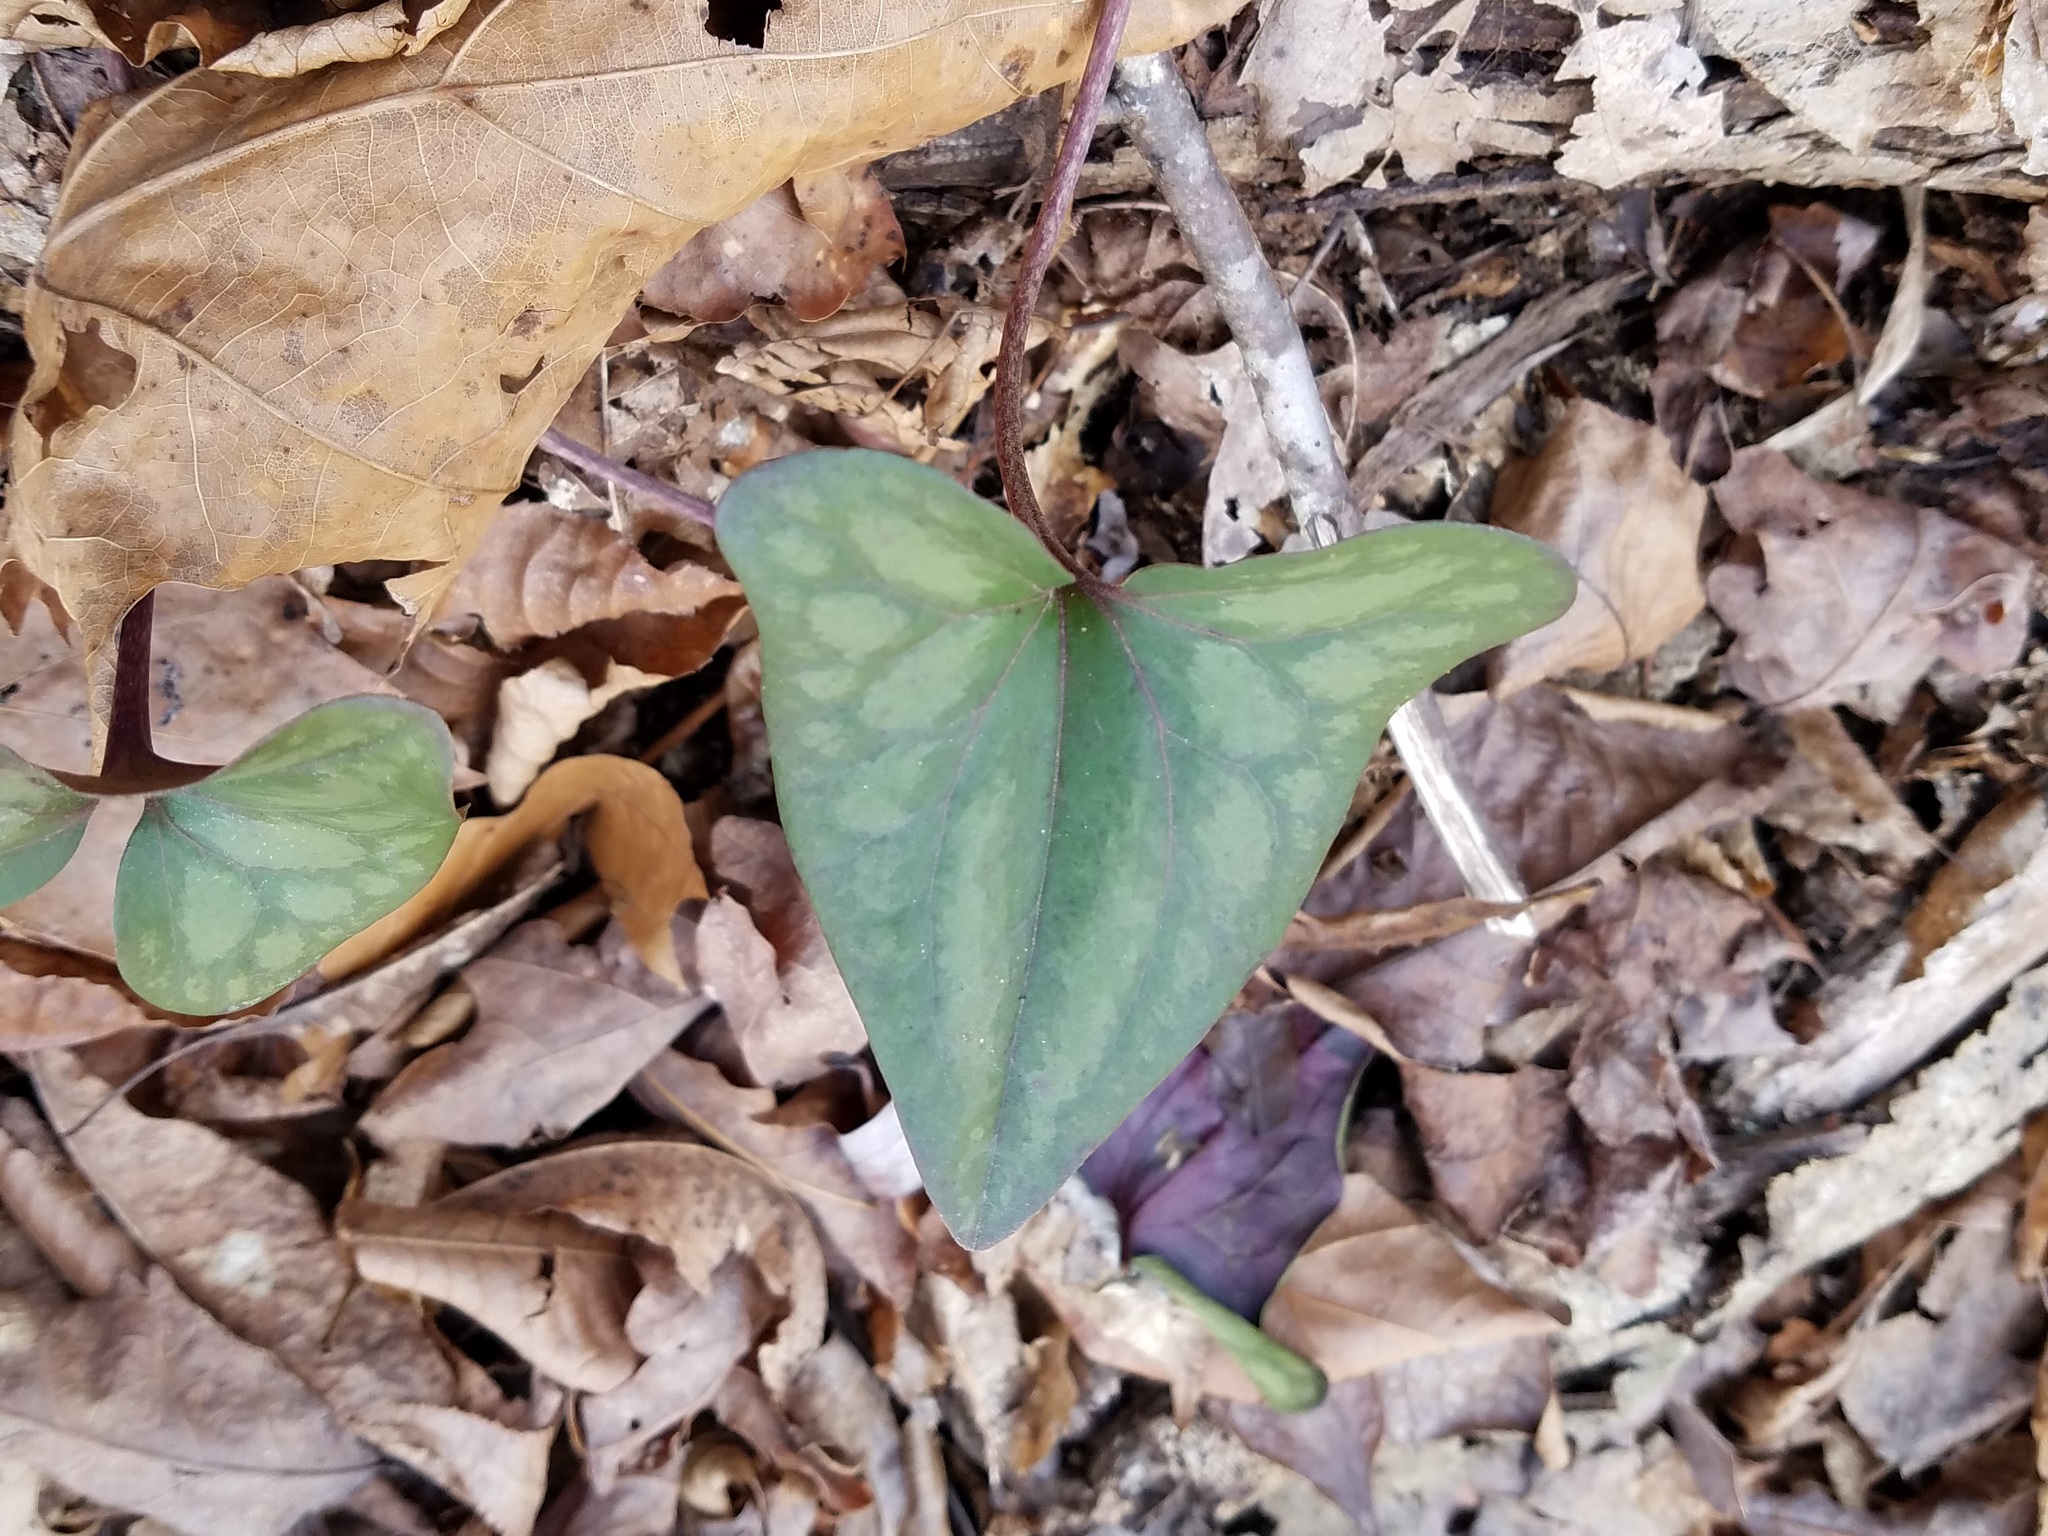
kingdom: Plantae
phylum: Tracheophyta
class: Magnoliopsida
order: Piperales
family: Aristolochiaceae
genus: Hexastylis
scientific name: Hexastylis arifolia
